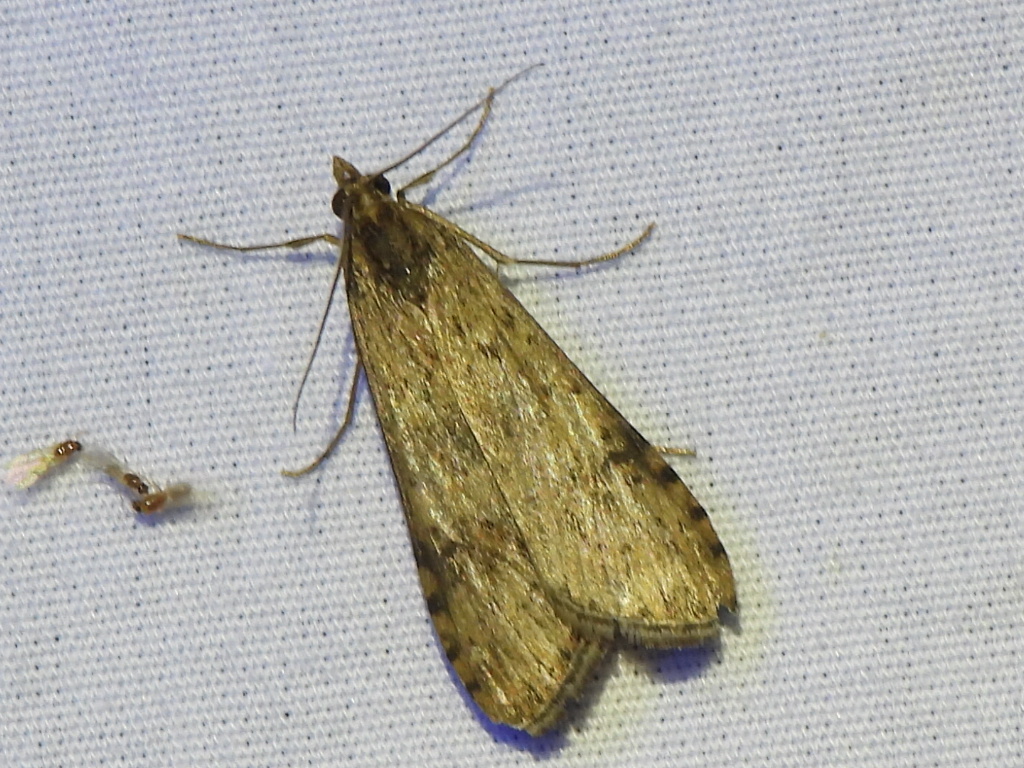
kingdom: Animalia
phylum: Arthropoda
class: Insecta
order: Lepidoptera
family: Crambidae
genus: Nomophila
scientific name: Nomophila nearctica
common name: American rush veneer
